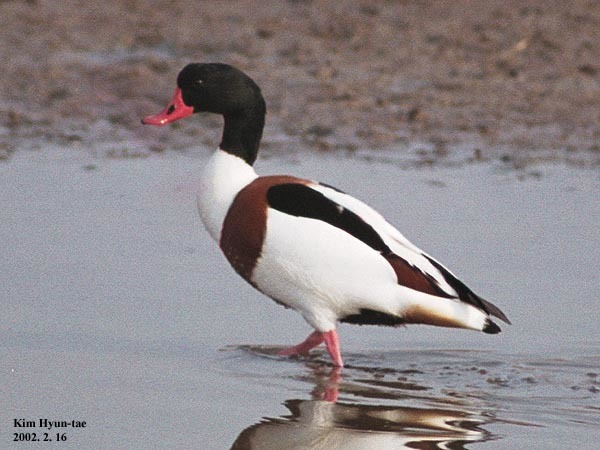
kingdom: Animalia
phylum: Chordata
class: Aves
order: Anseriformes
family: Anatidae
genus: Tadorna
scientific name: Tadorna tadorna
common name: Common shelduck
